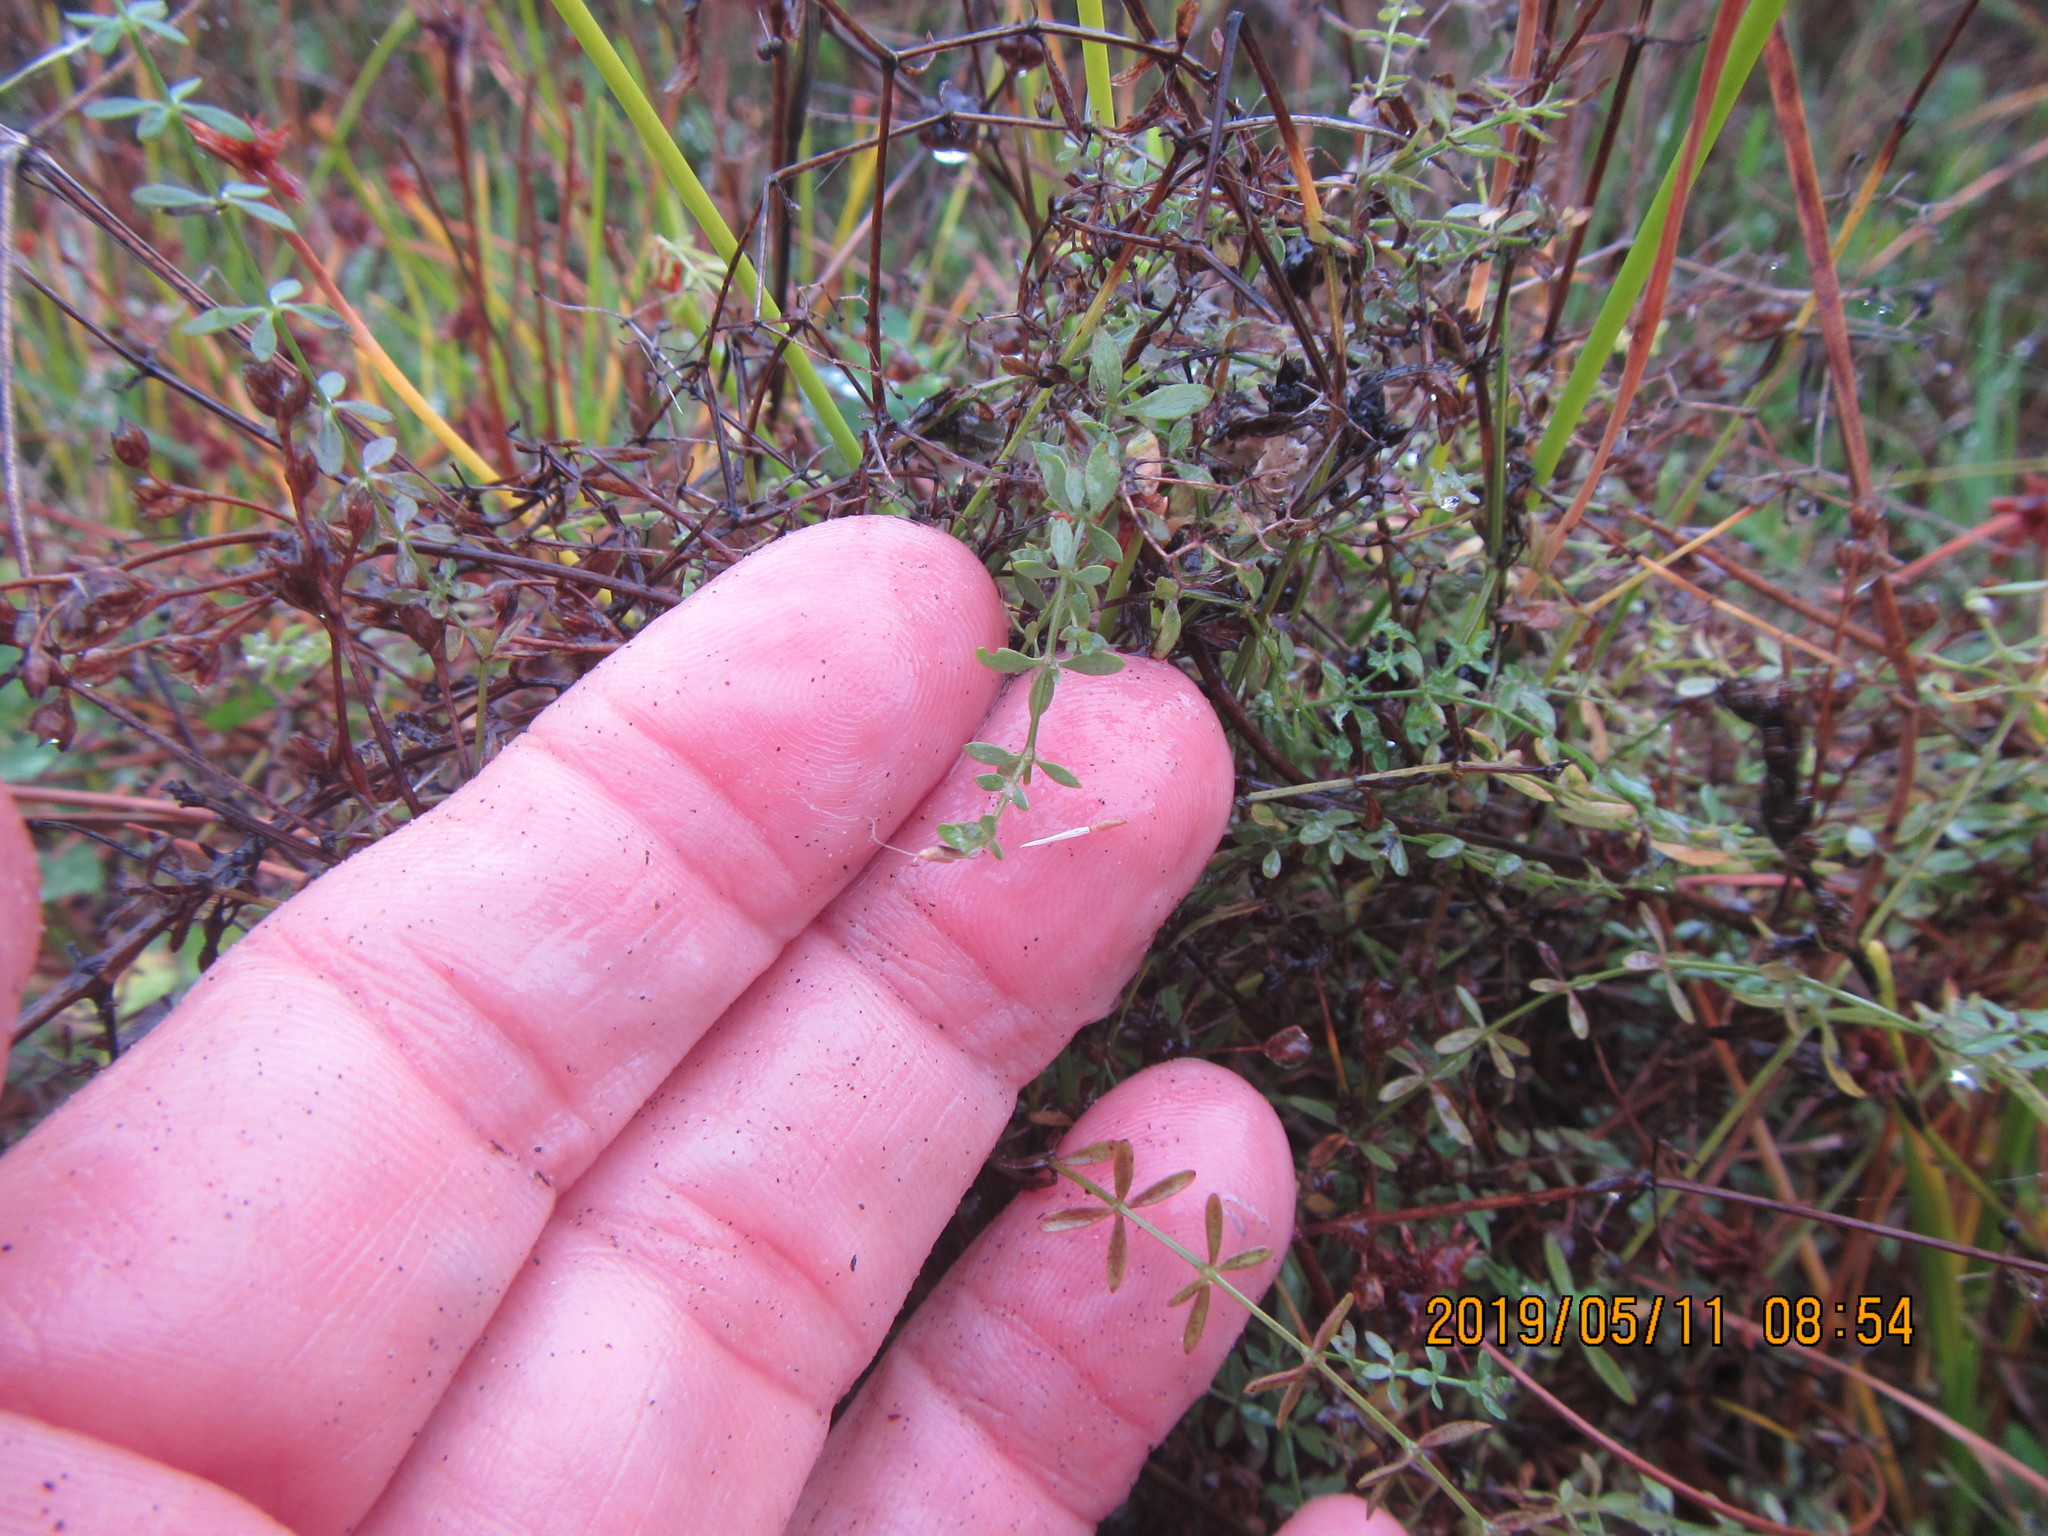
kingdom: Plantae
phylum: Tracheophyta
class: Magnoliopsida
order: Gentianales
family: Rubiaceae
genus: Galium
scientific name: Galium palustre
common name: Common marsh-bedstraw
